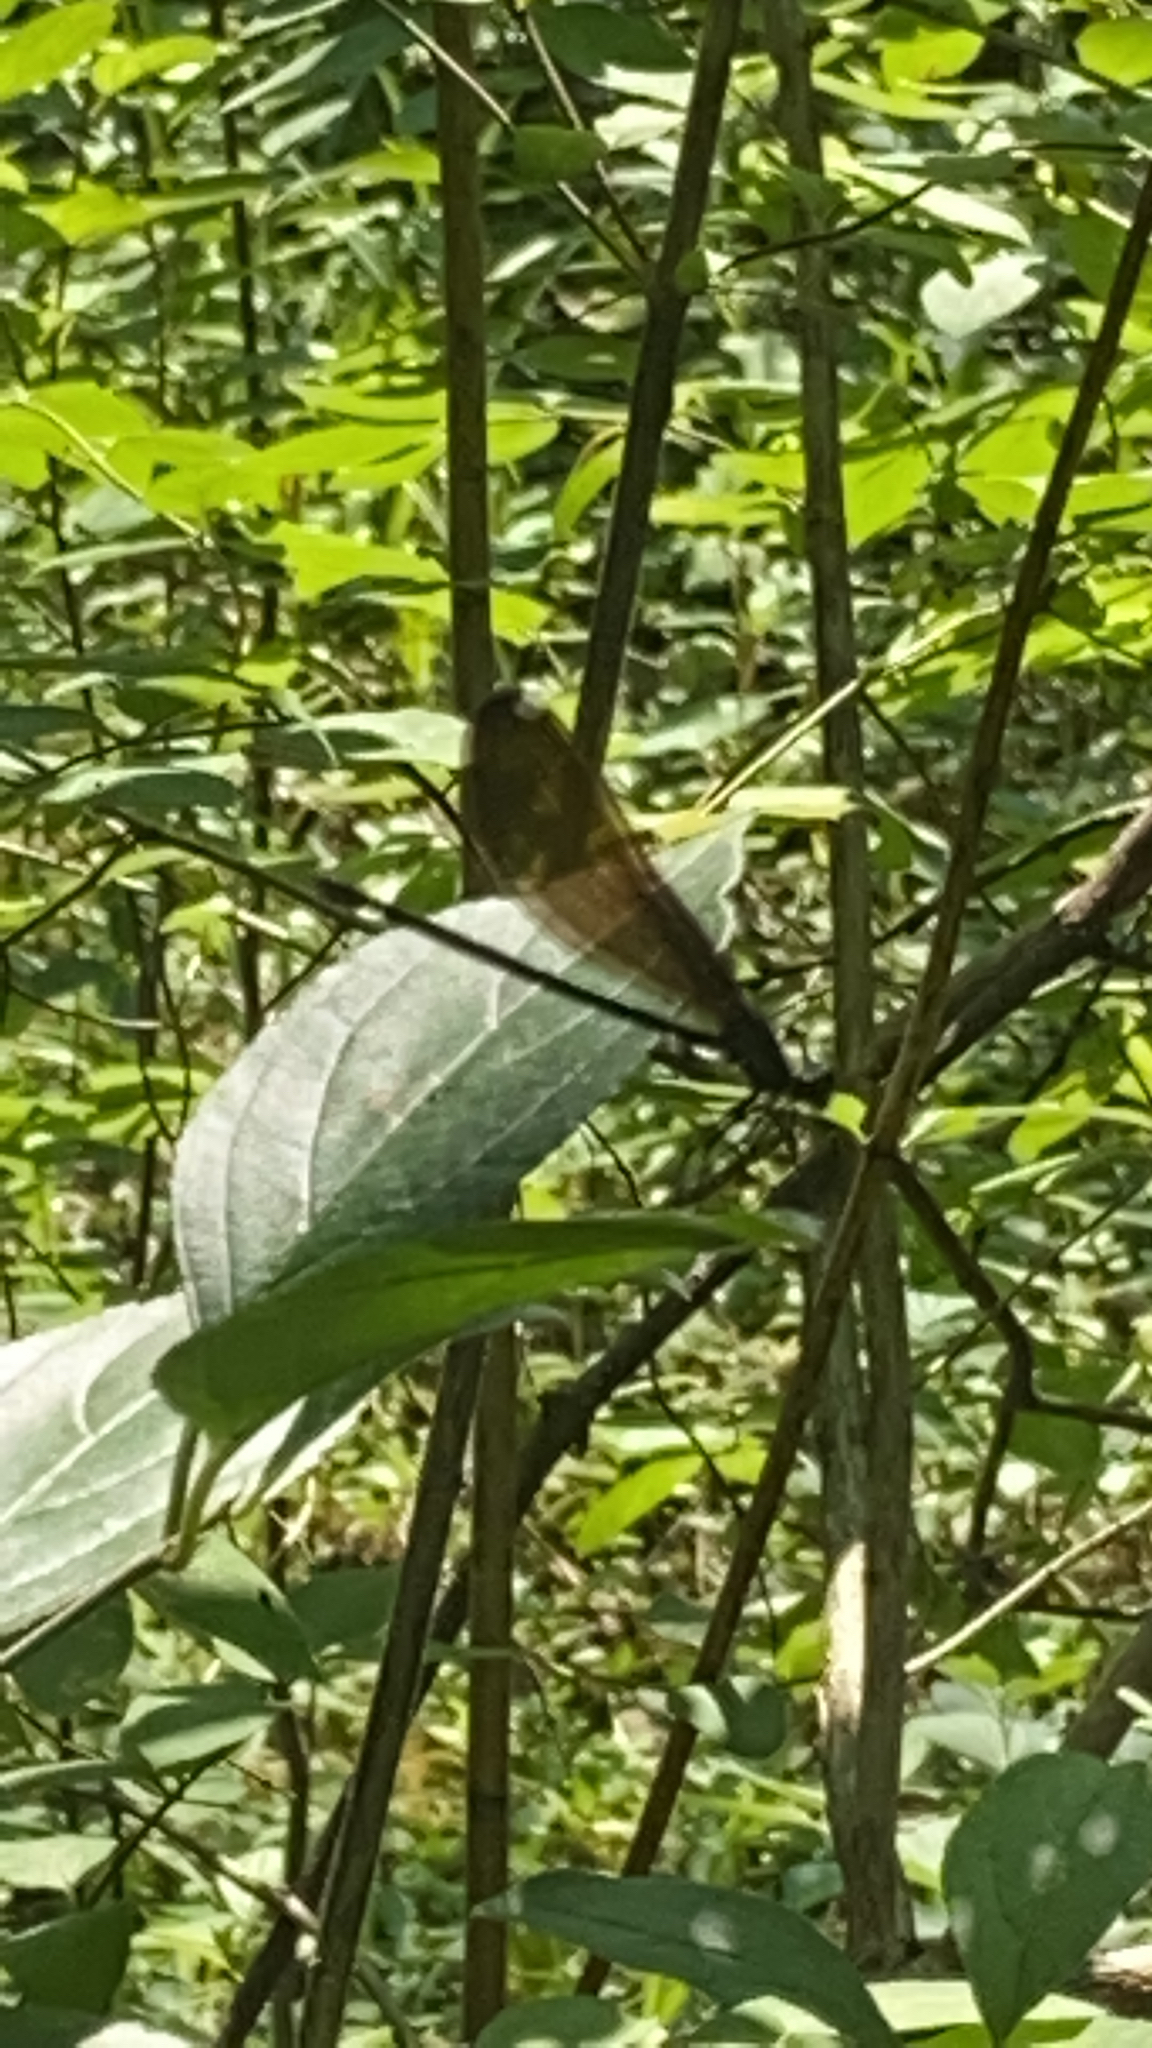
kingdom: Animalia
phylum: Arthropoda
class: Insecta
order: Odonata
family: Calopterygidae
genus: Calopteryx
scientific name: Calopteryx maculata
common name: Ebony jewelwing
